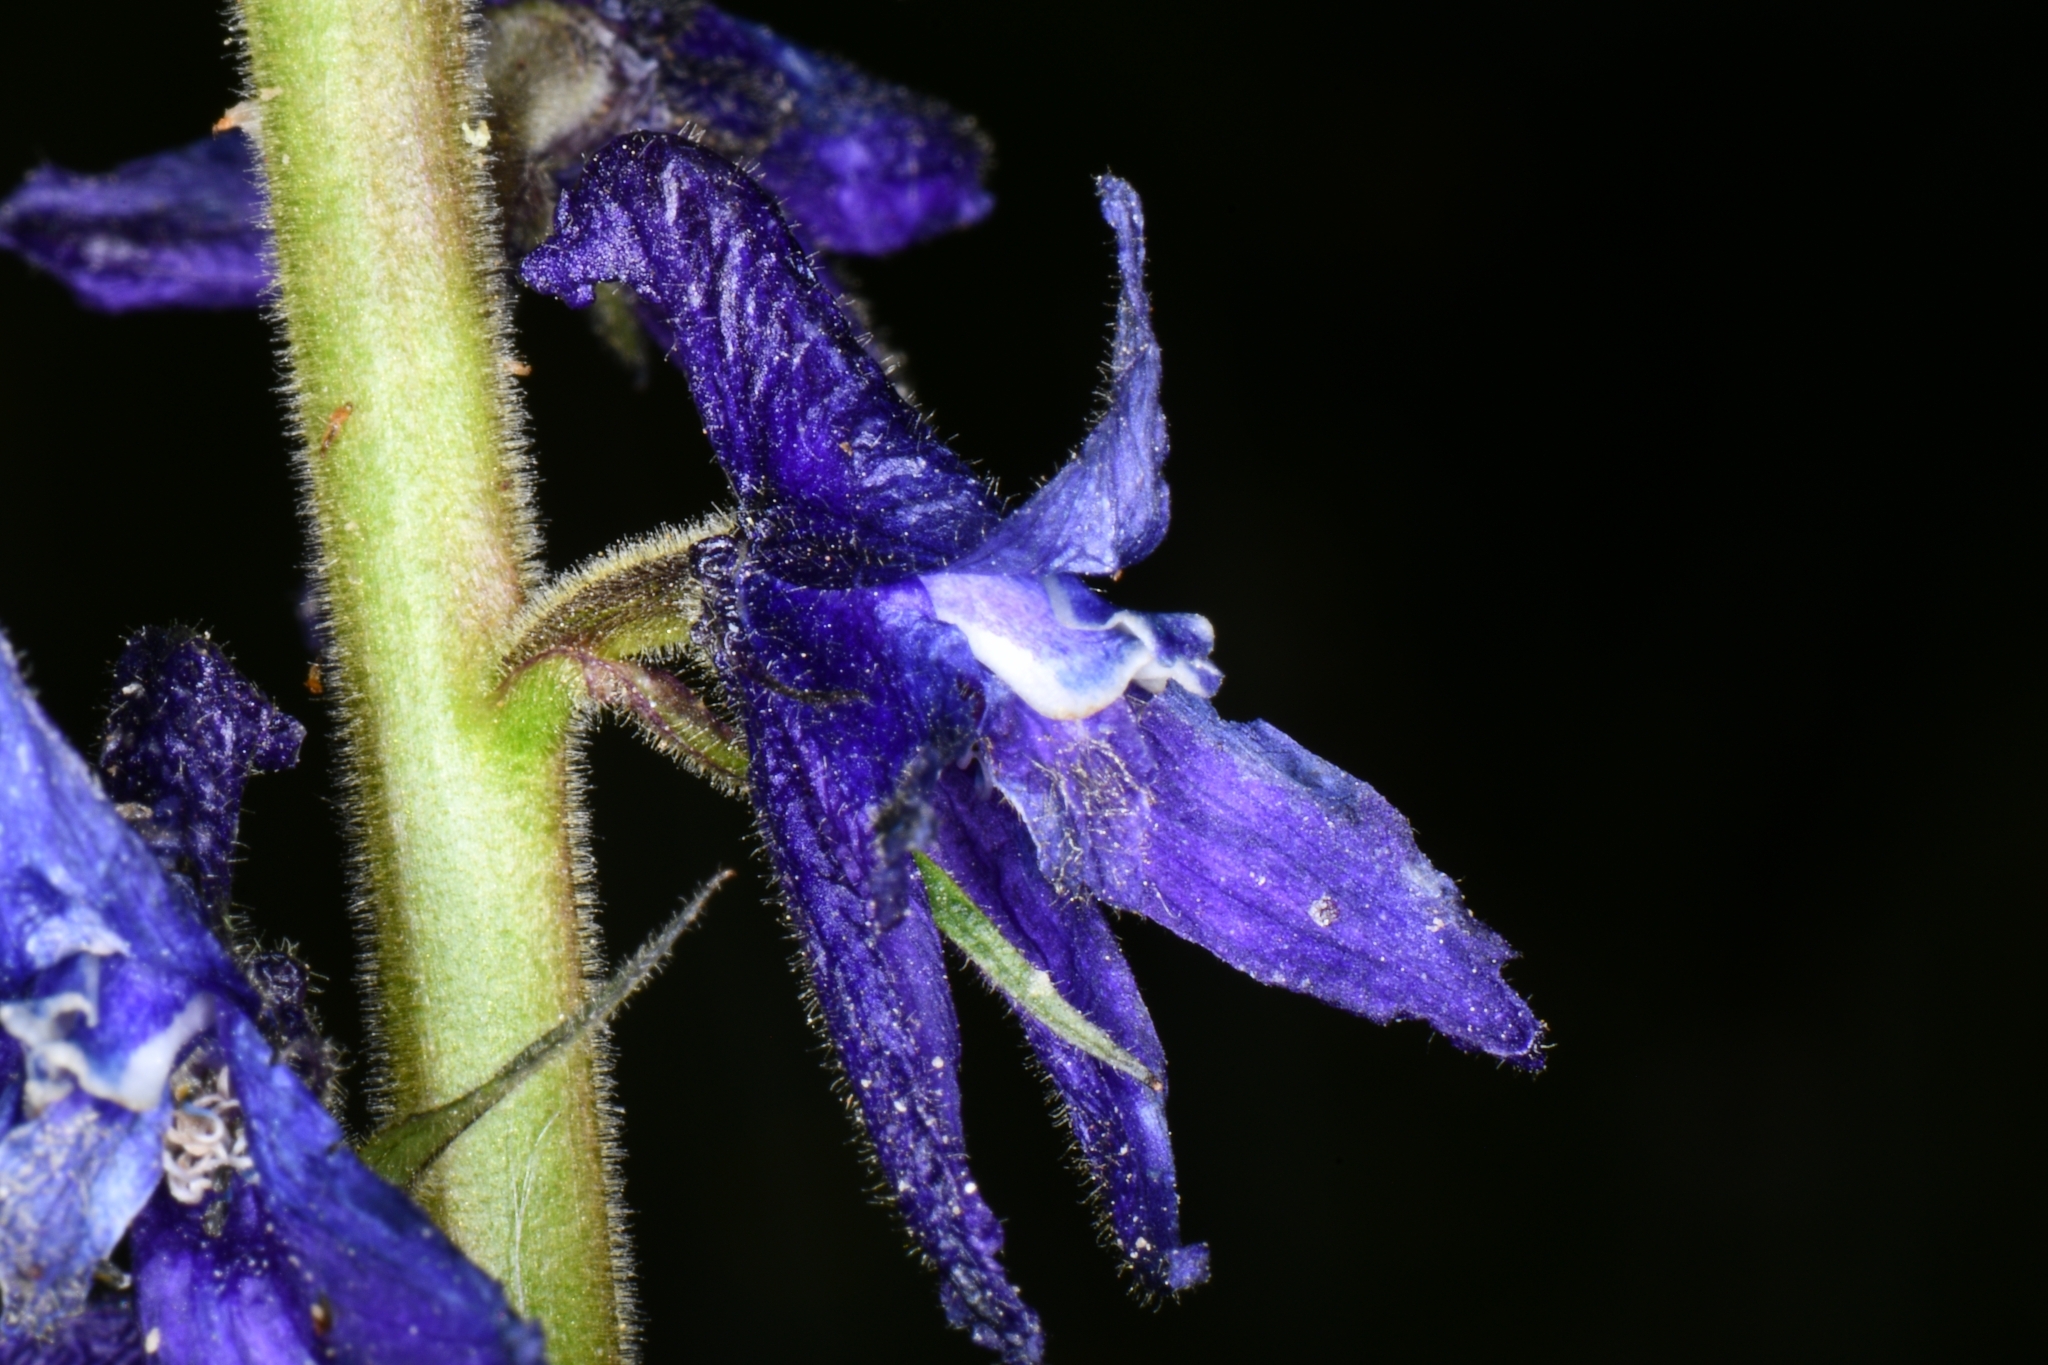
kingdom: Plantae
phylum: Tracheophyta
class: Magnoliopsida
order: Ranunculales
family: Ranunculaceae
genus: Delphinium
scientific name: Delphinium barbeyi
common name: Subalpine larkspur
